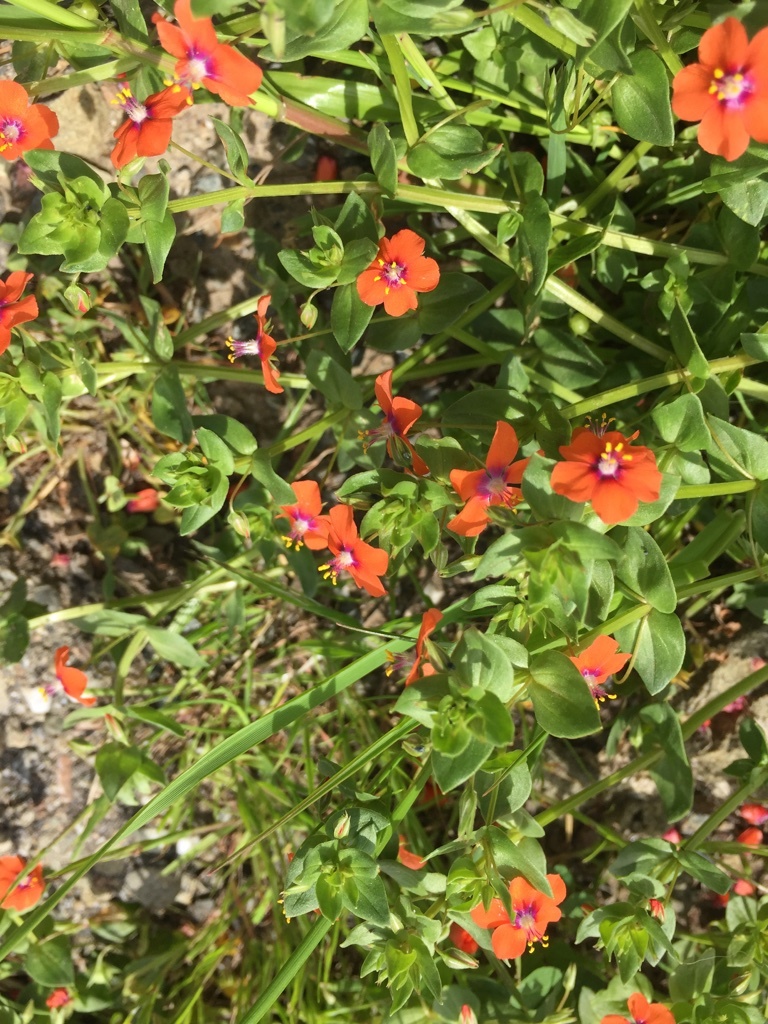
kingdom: Plantae
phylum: Tracheophyta
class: Magnoliopsida
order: Ericales
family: Primulaceae
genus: Lysimachia
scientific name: Lysimachia arvensis
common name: Scarlet pimpernel
